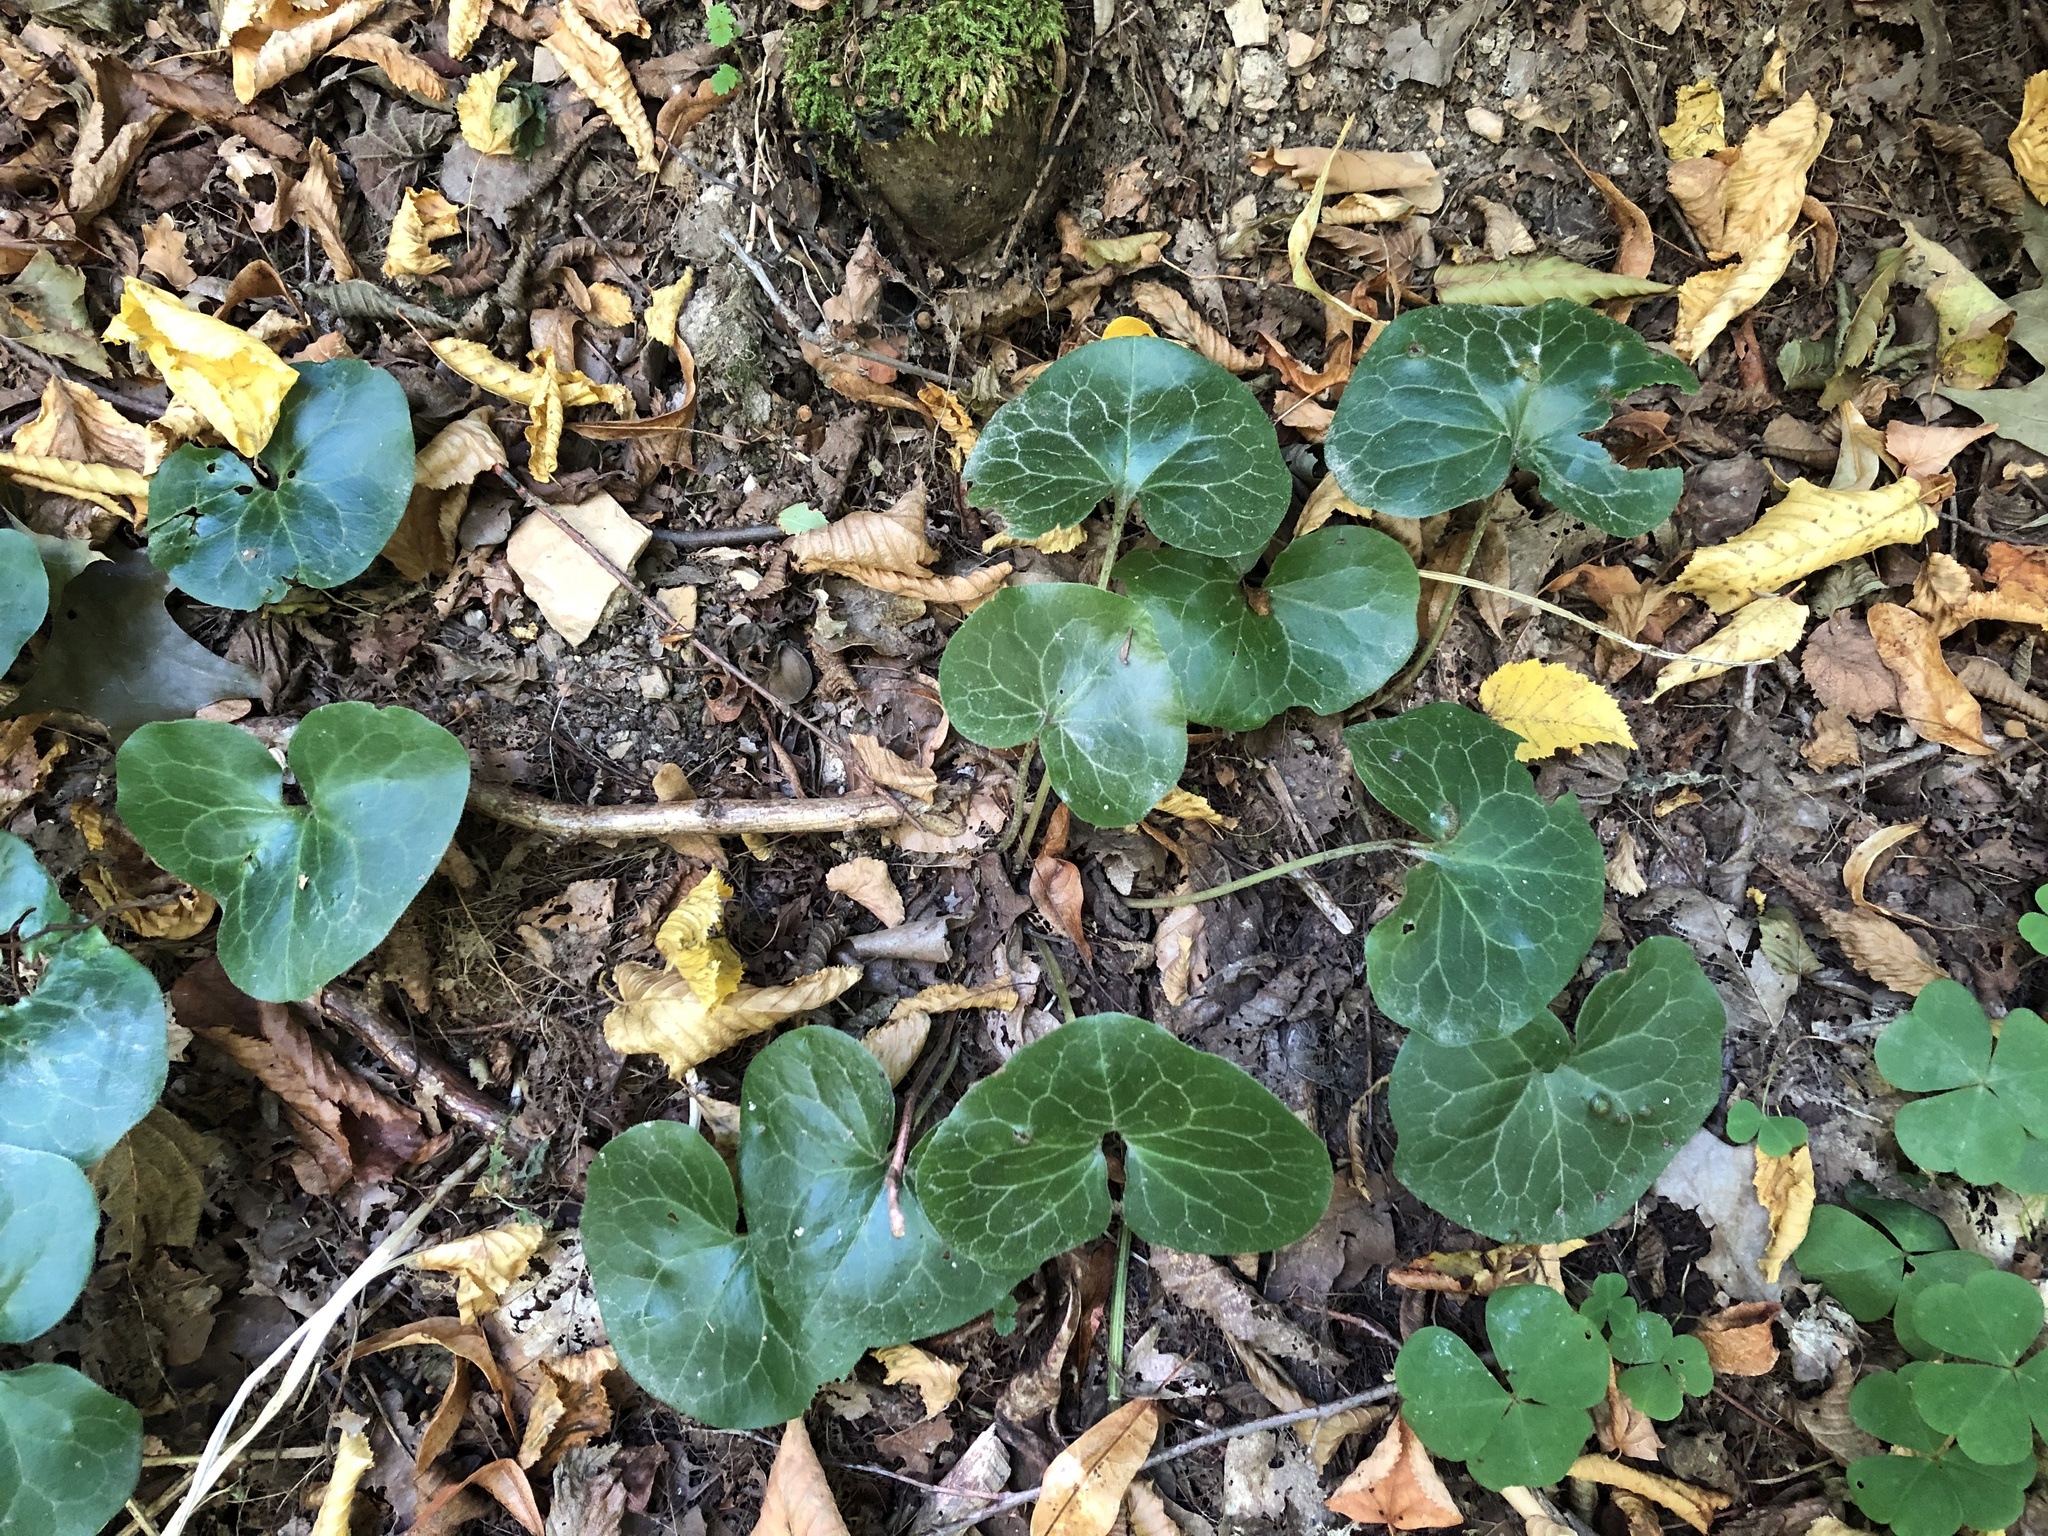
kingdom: Plantae
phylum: Tracheophyta
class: Magnoliopsida
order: Piperales
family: Aristolochiaceae
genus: Asarum
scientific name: Asarum europaeum
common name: Asarabacca
